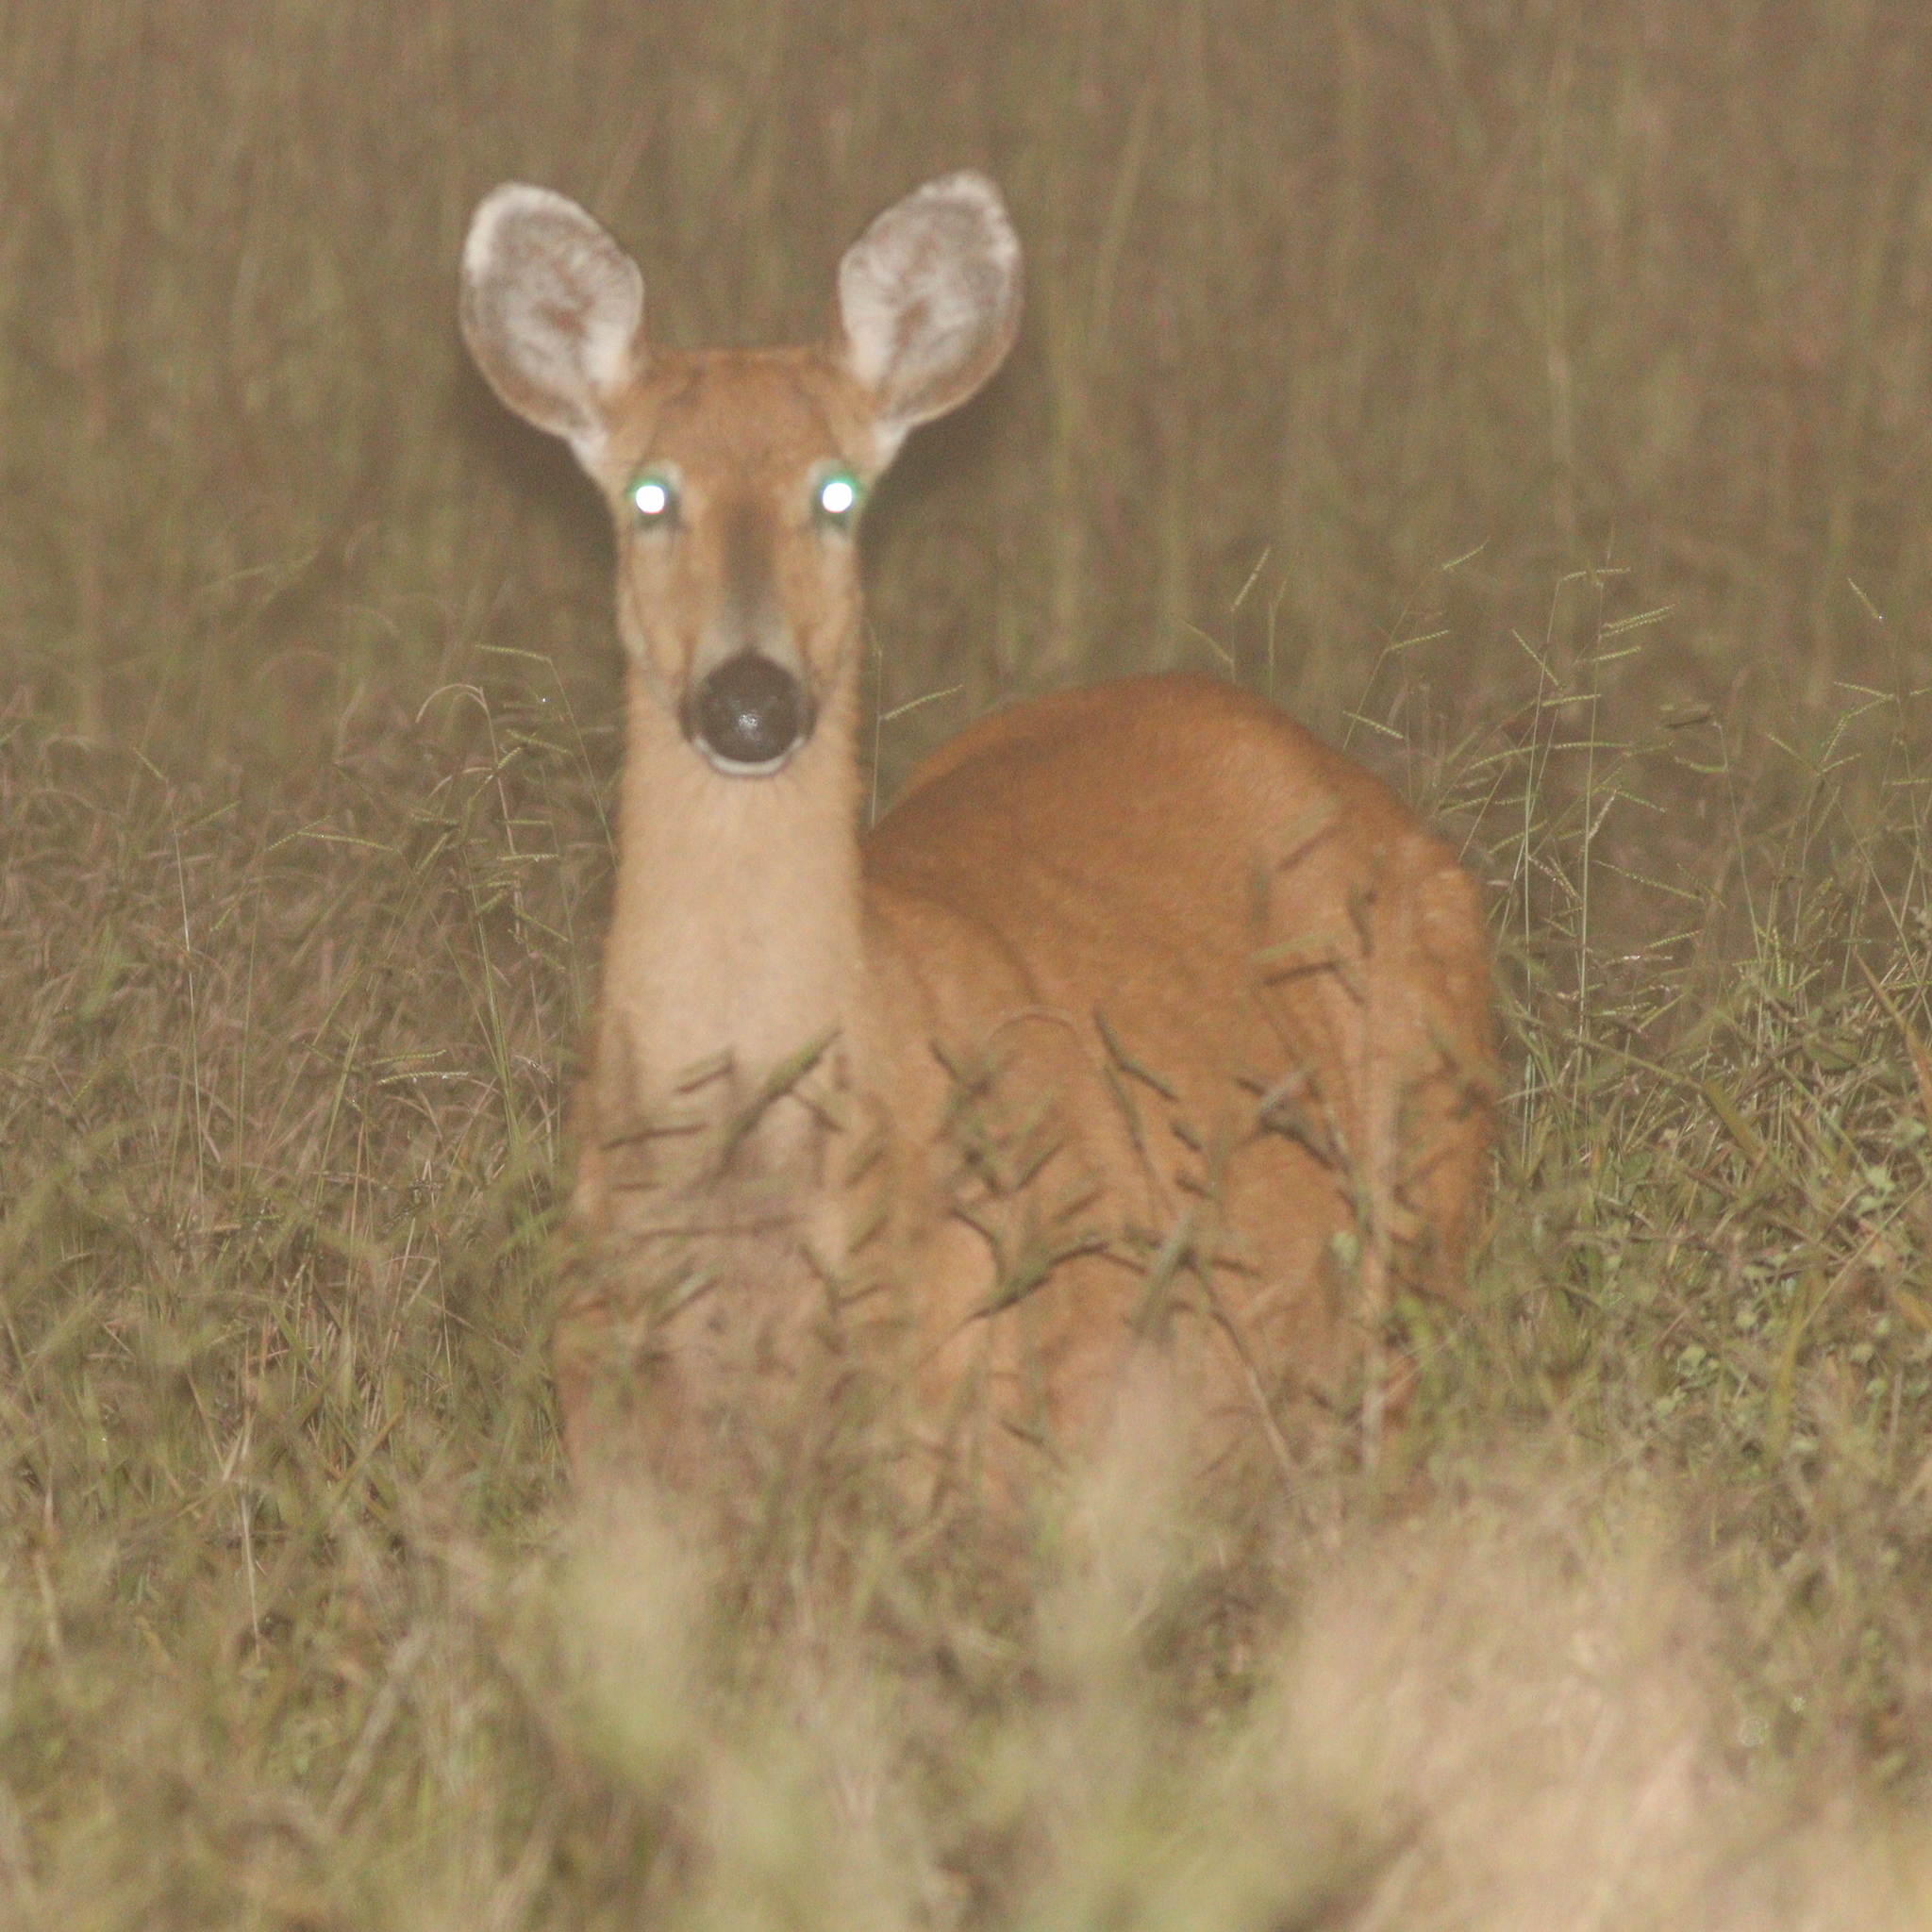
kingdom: Animalia
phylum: Chordata
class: Mammalia
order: Artiodactyla
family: Cervidae
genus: Blastocerus
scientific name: Blastocerus dichotomus
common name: Marsh deer
